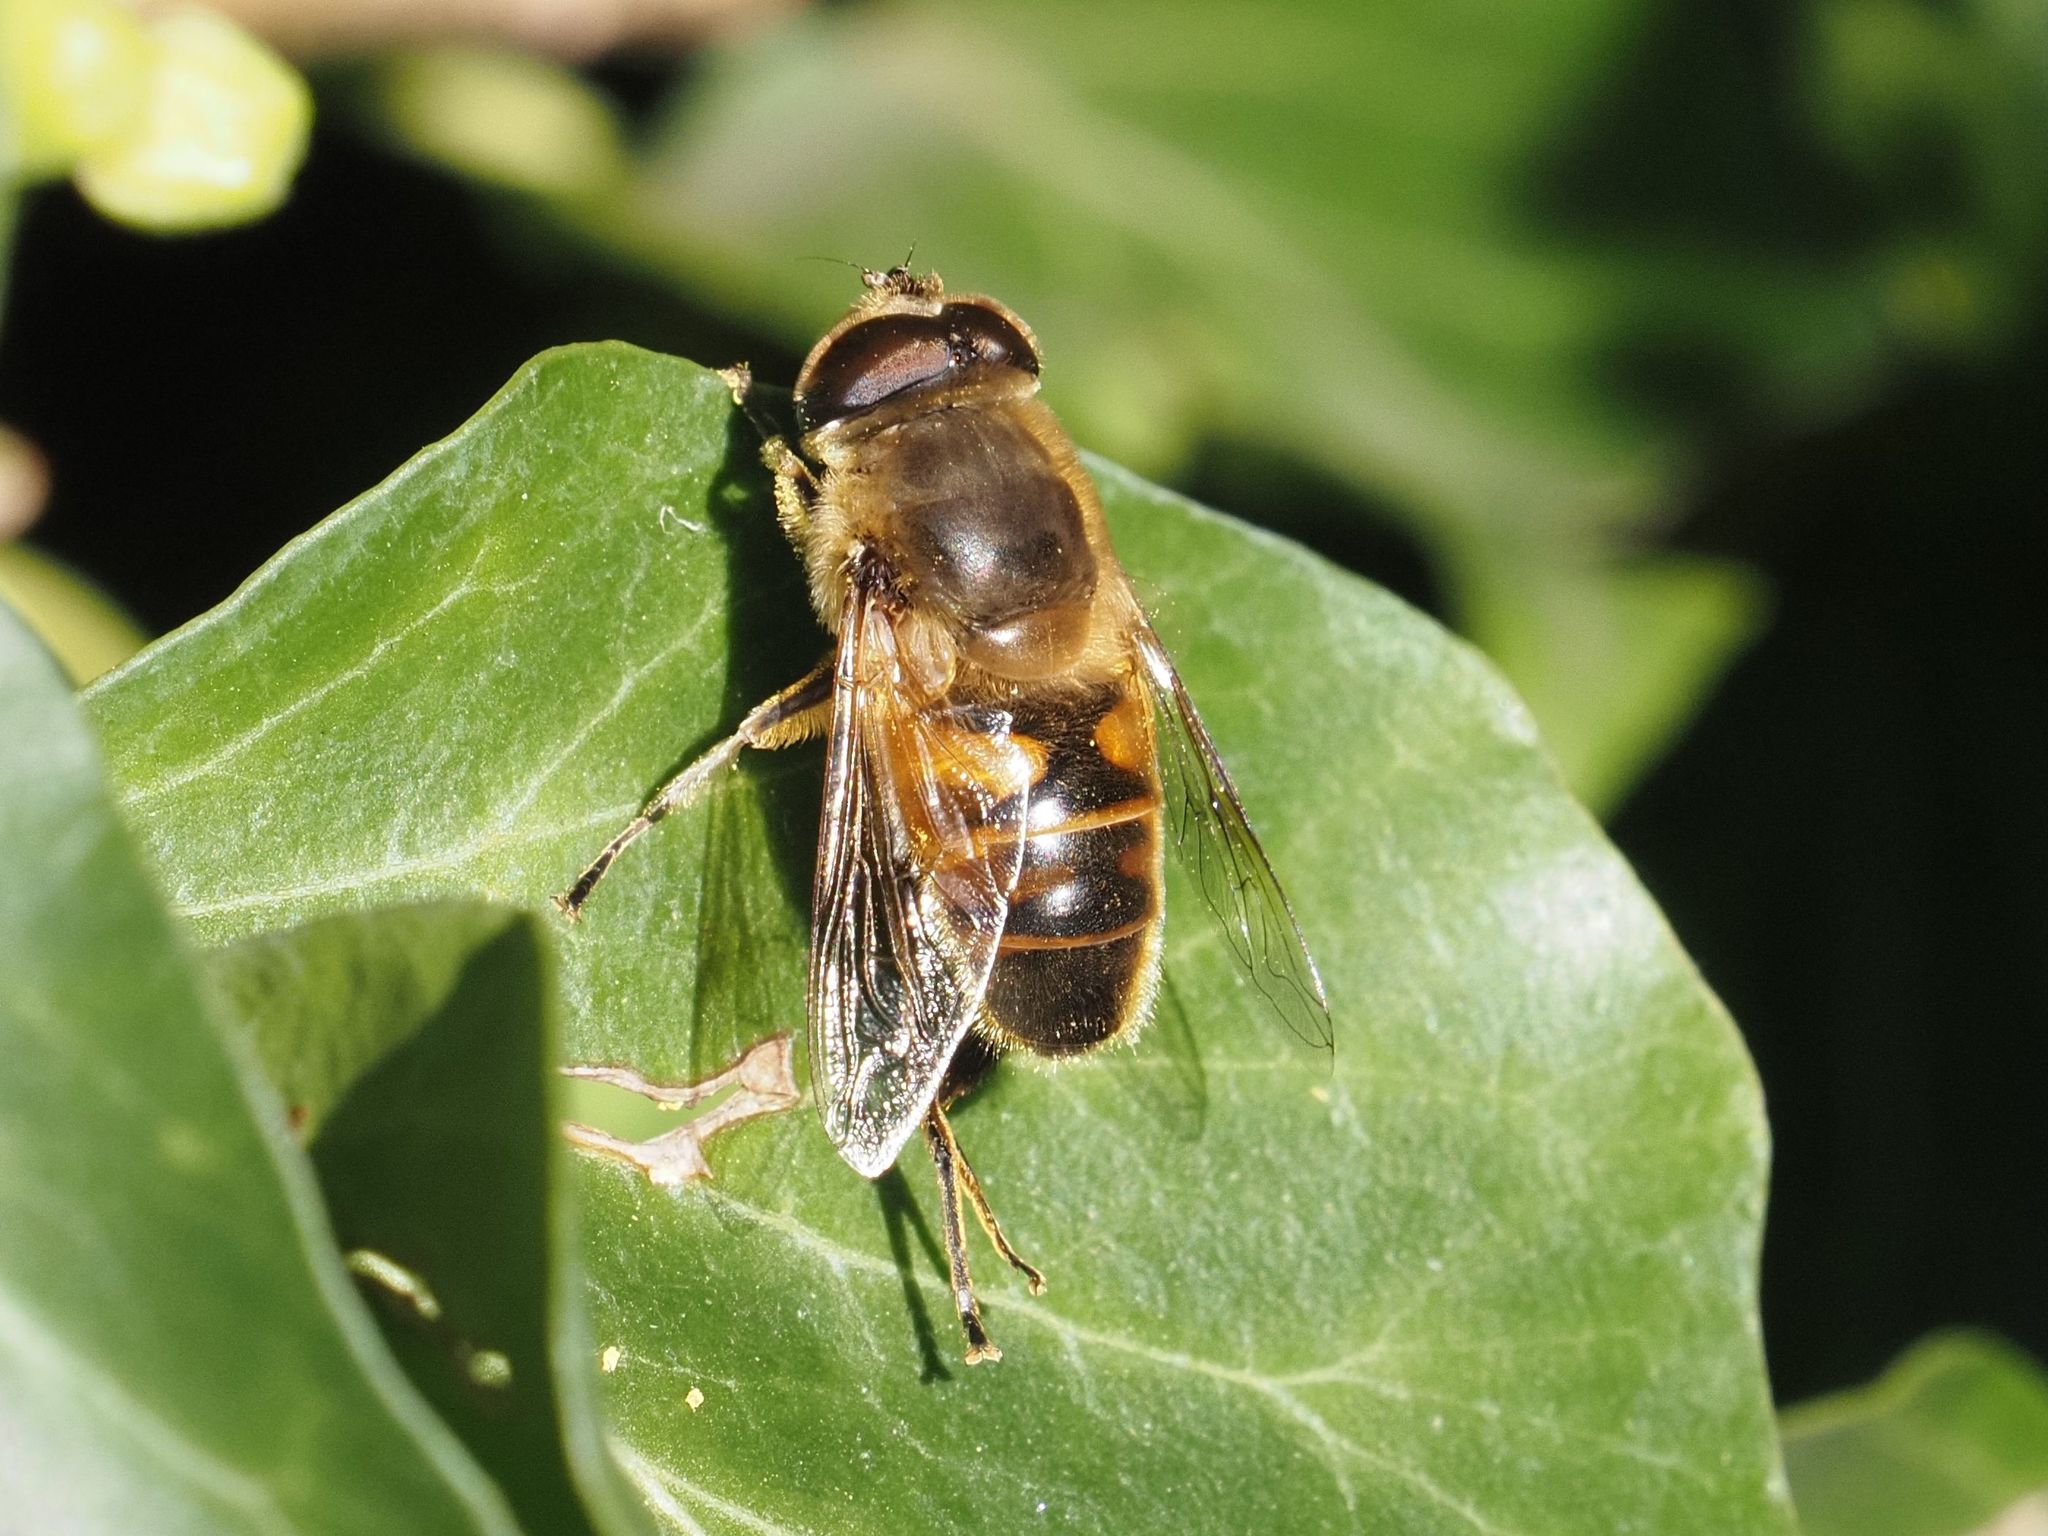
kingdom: Animalia
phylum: Arthropoda
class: Insecta
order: Diptera
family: Syrphidae
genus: Eristalis
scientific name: Eristalis tenax
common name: Drone fly
